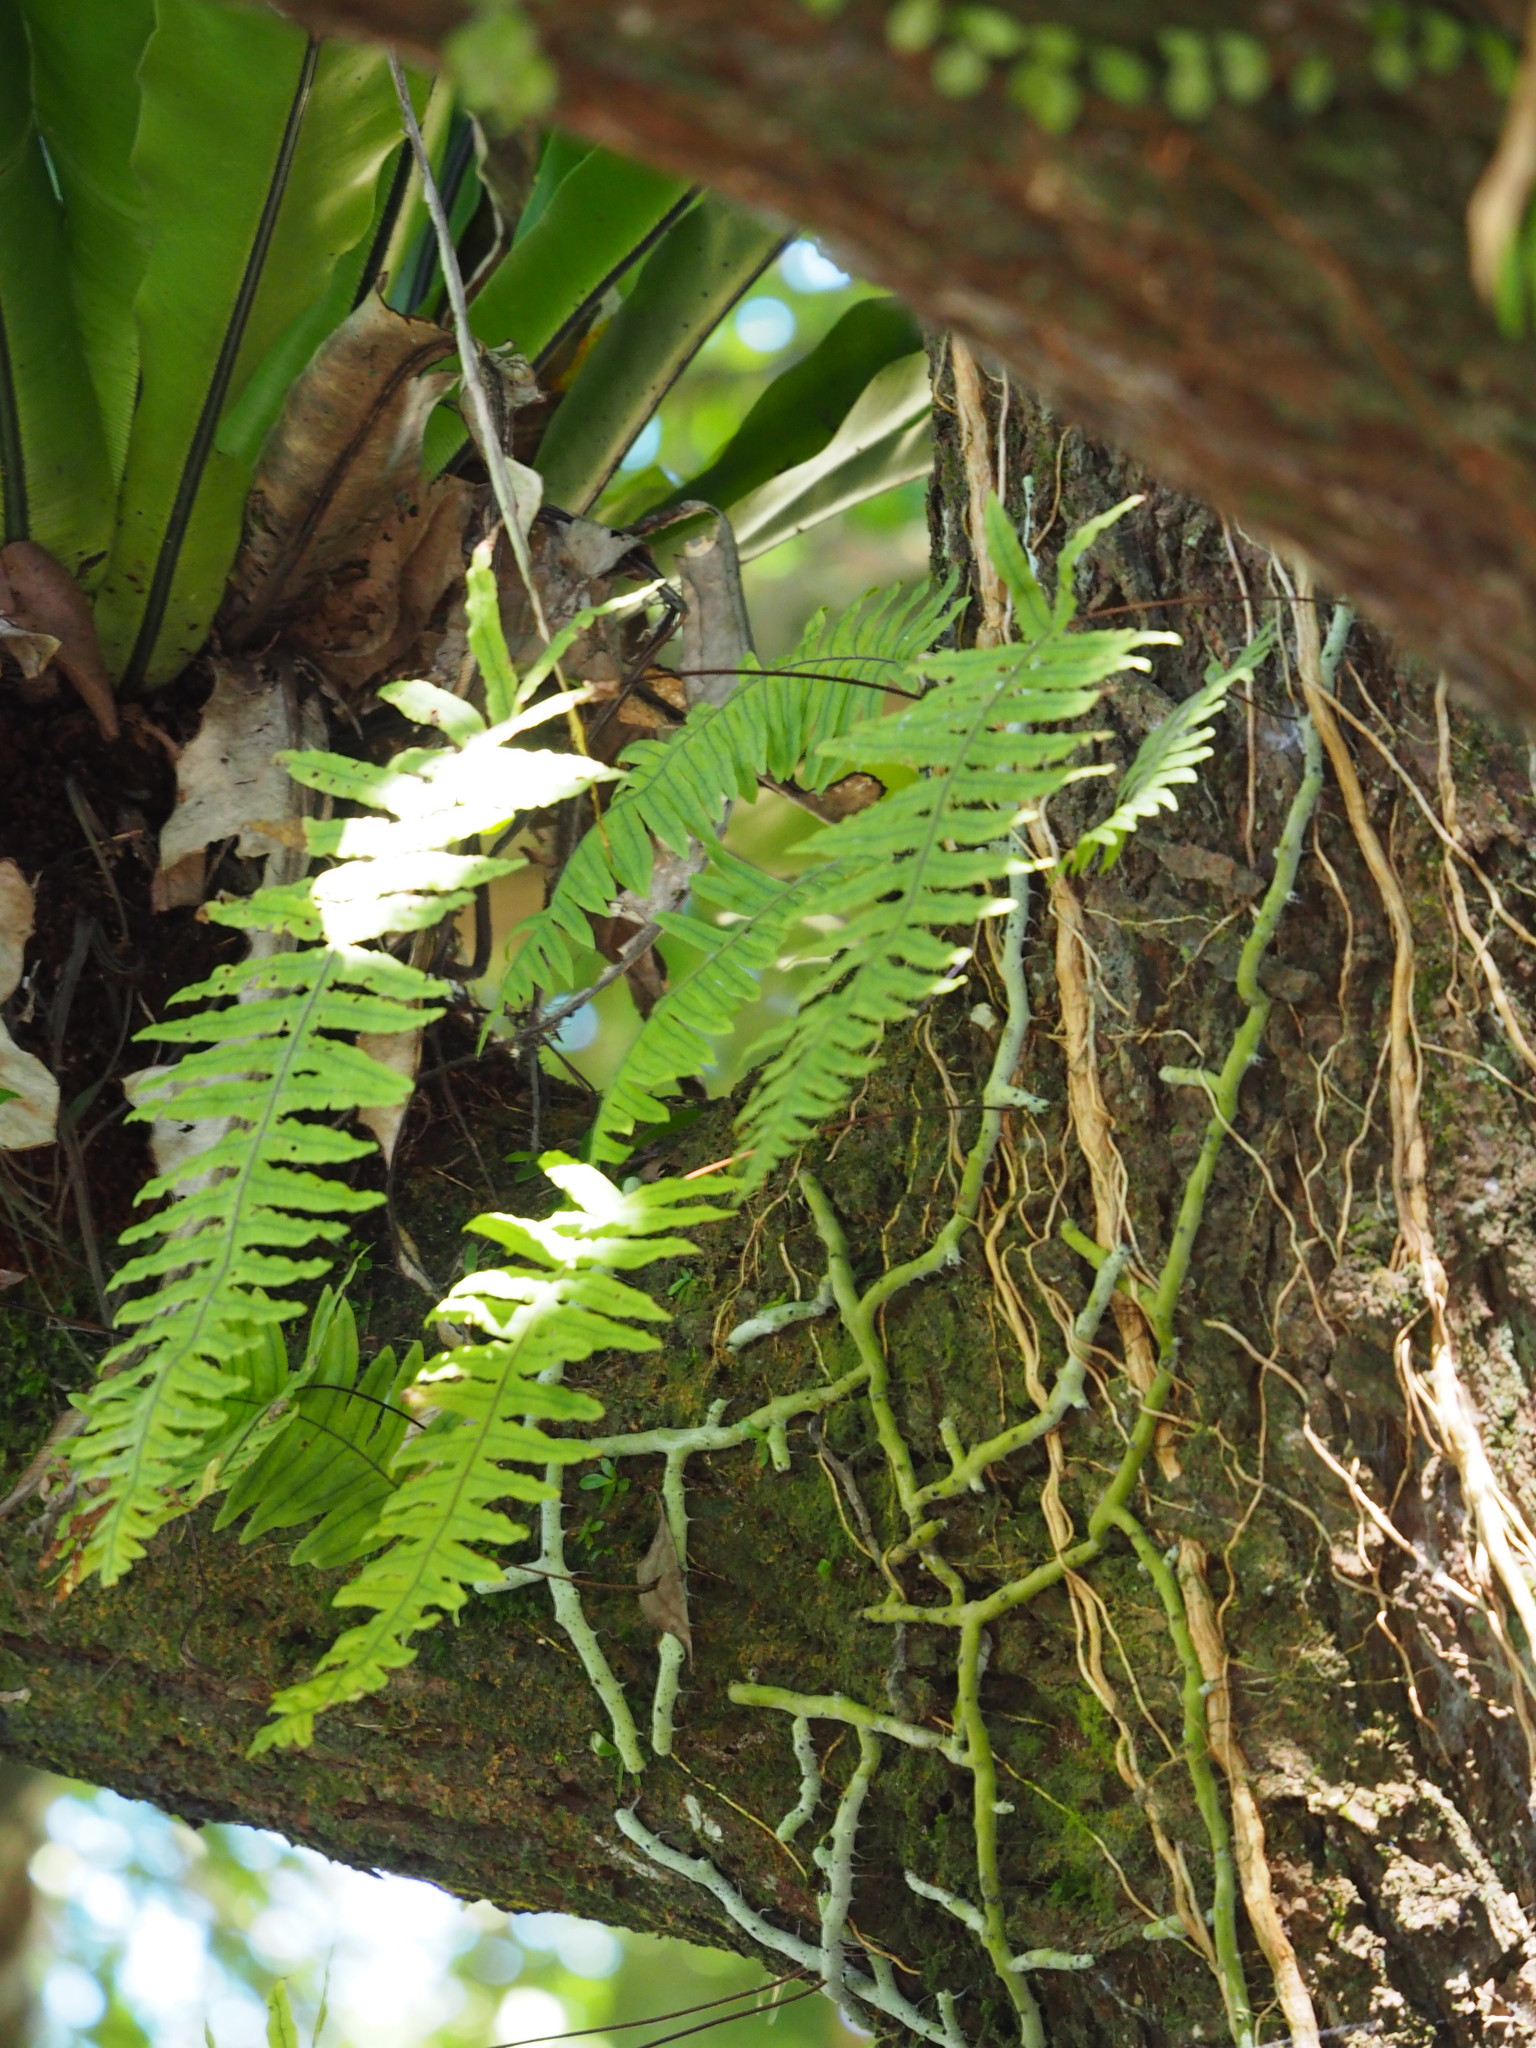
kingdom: Plantae
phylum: Tracheophyta
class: Polypodiopsida
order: Polypodiales
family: Polypodiaceae
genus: Goniophlebium
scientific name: Goniophlebium formosanum
